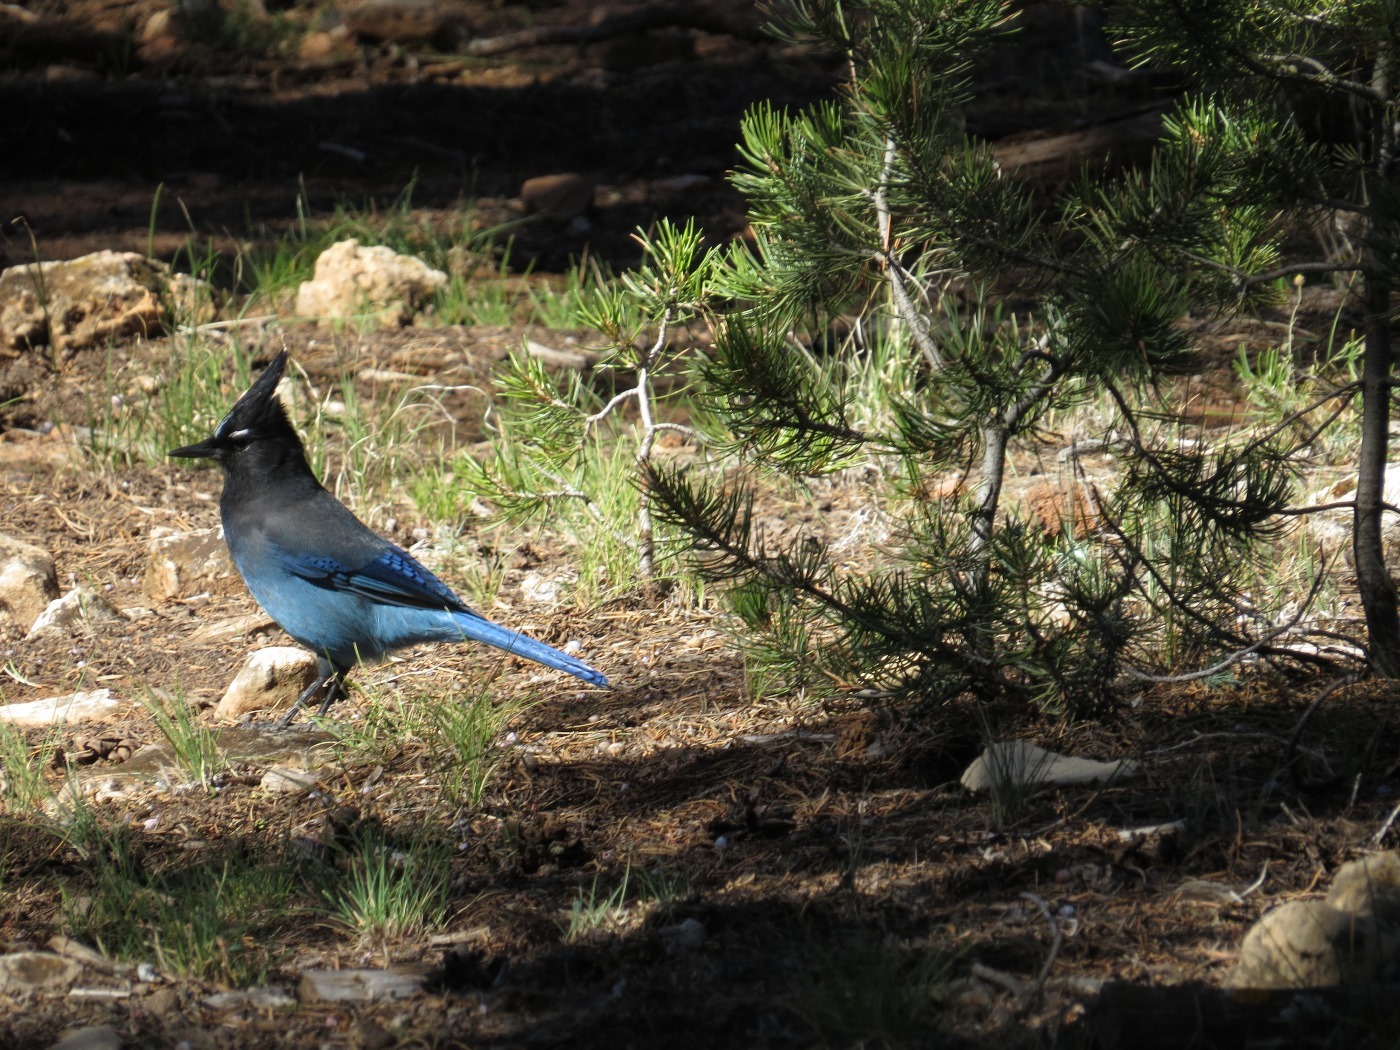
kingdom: Animalia
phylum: Chordata
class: Aves
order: Passeriformes
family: Corvidae
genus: Cyanocitta
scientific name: Cyanocitta stelleri
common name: Steller's jay
